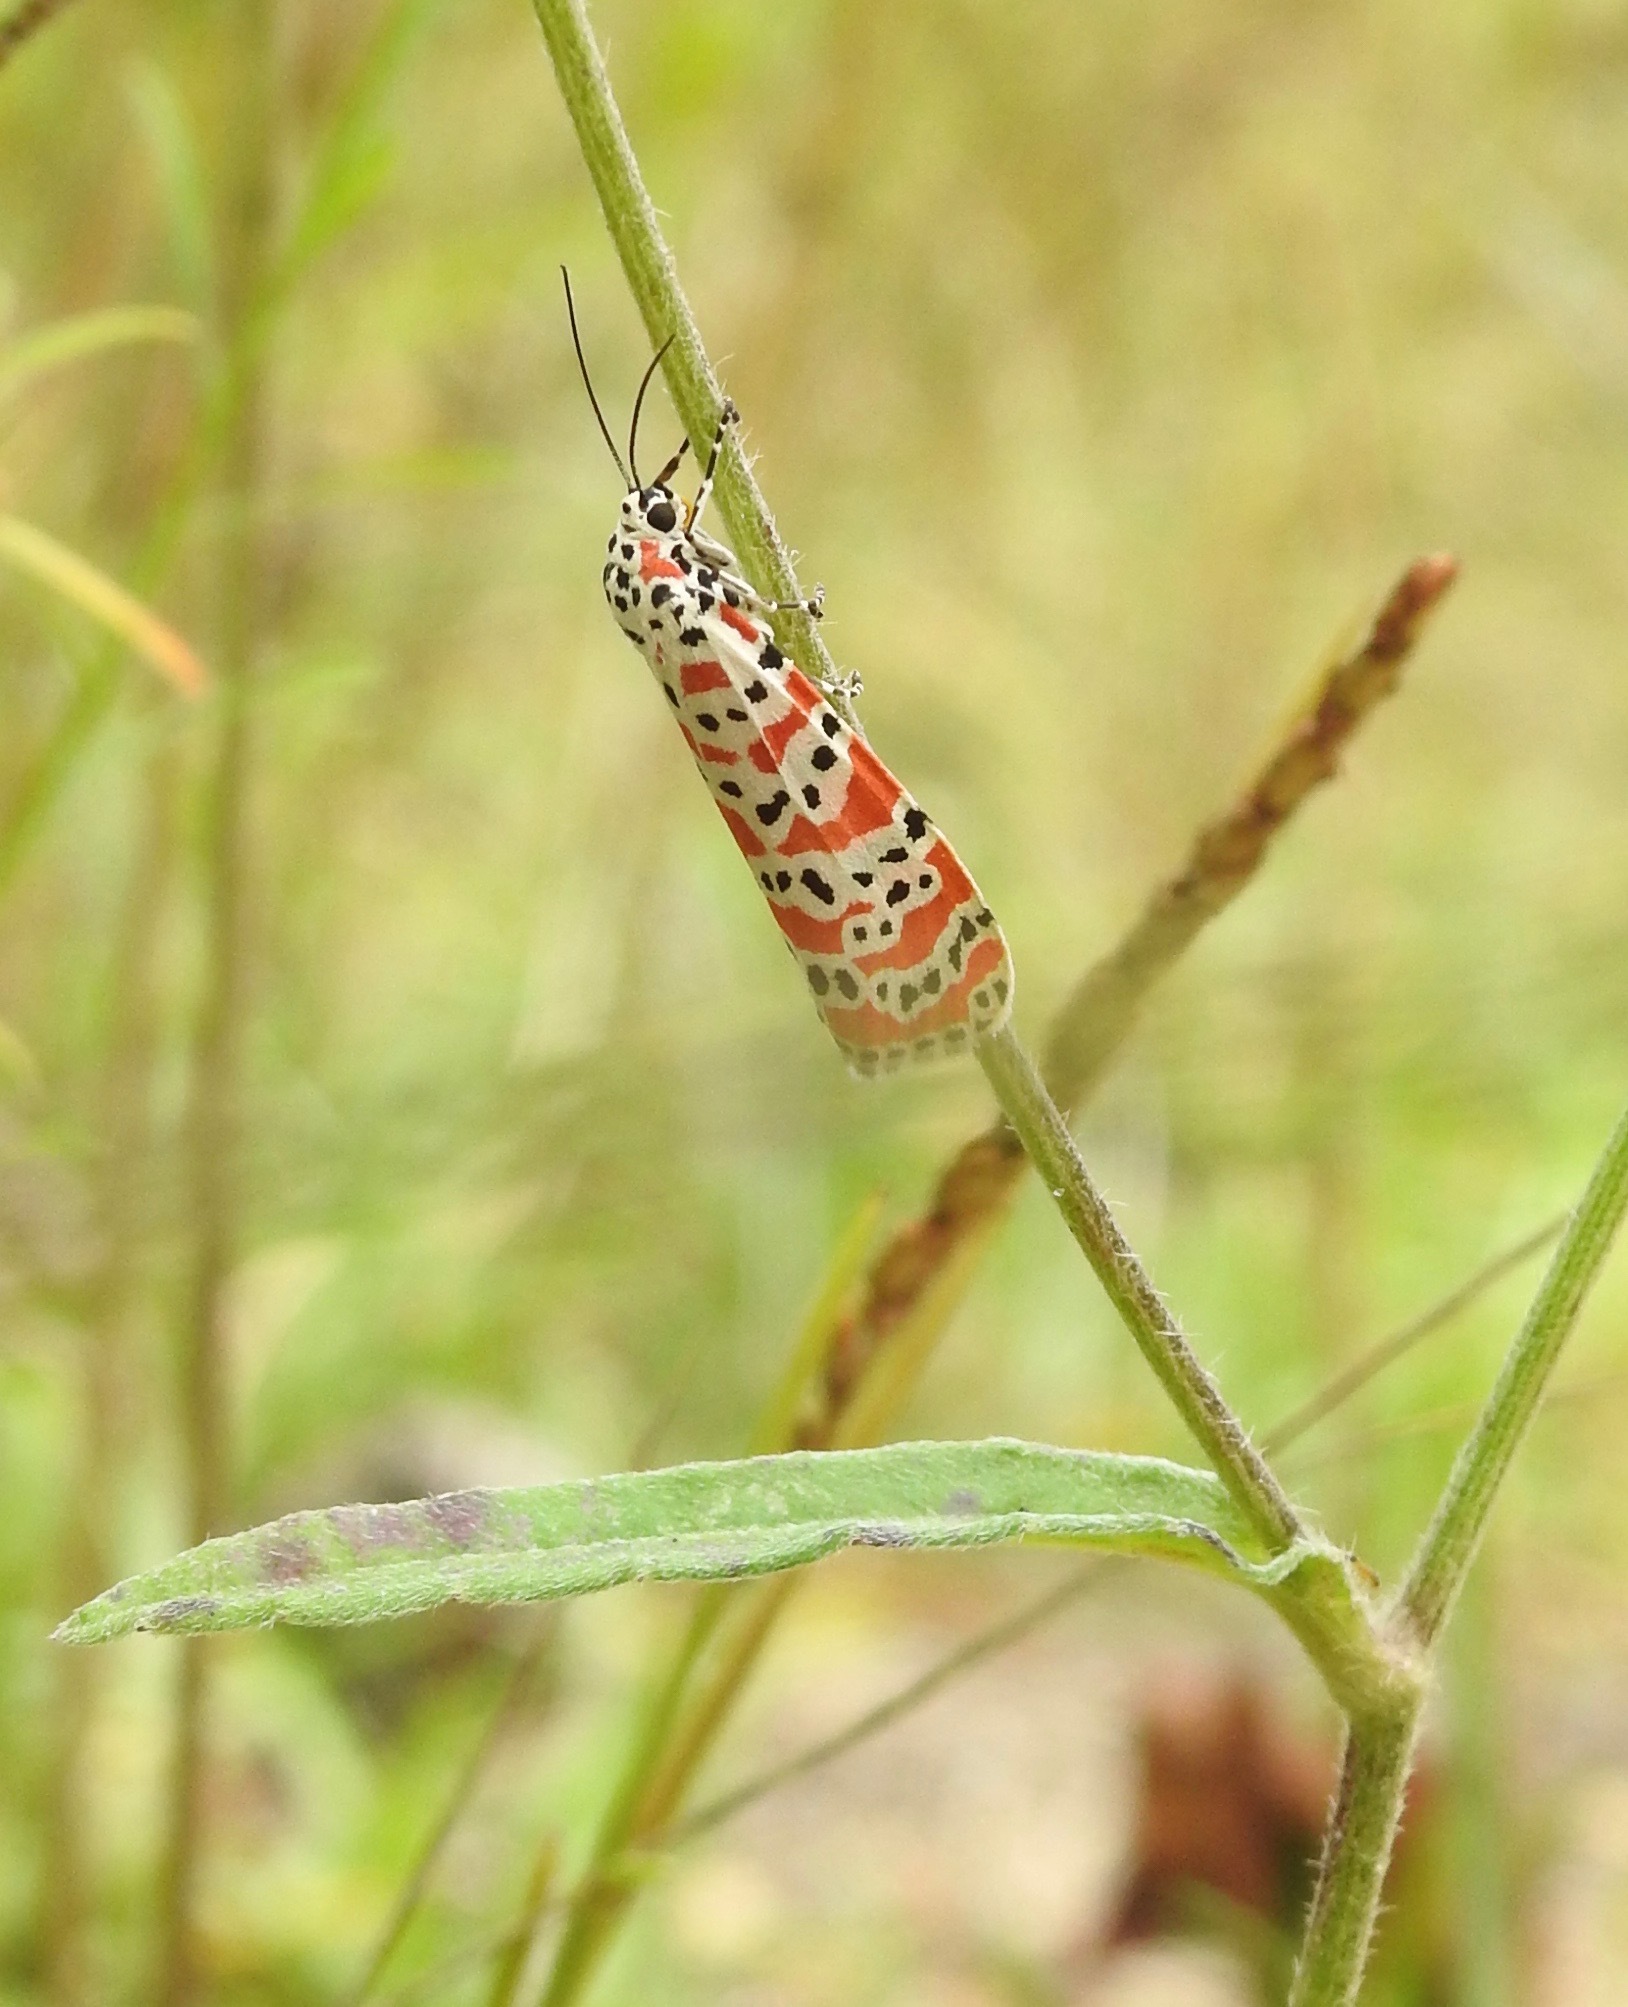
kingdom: Animalia
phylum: Arthropoda
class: Insecta
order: Lepidoptera
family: Erebidae
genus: Utetheisa
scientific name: Utetheisa ornatrix
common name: Beautiful utetheisa
